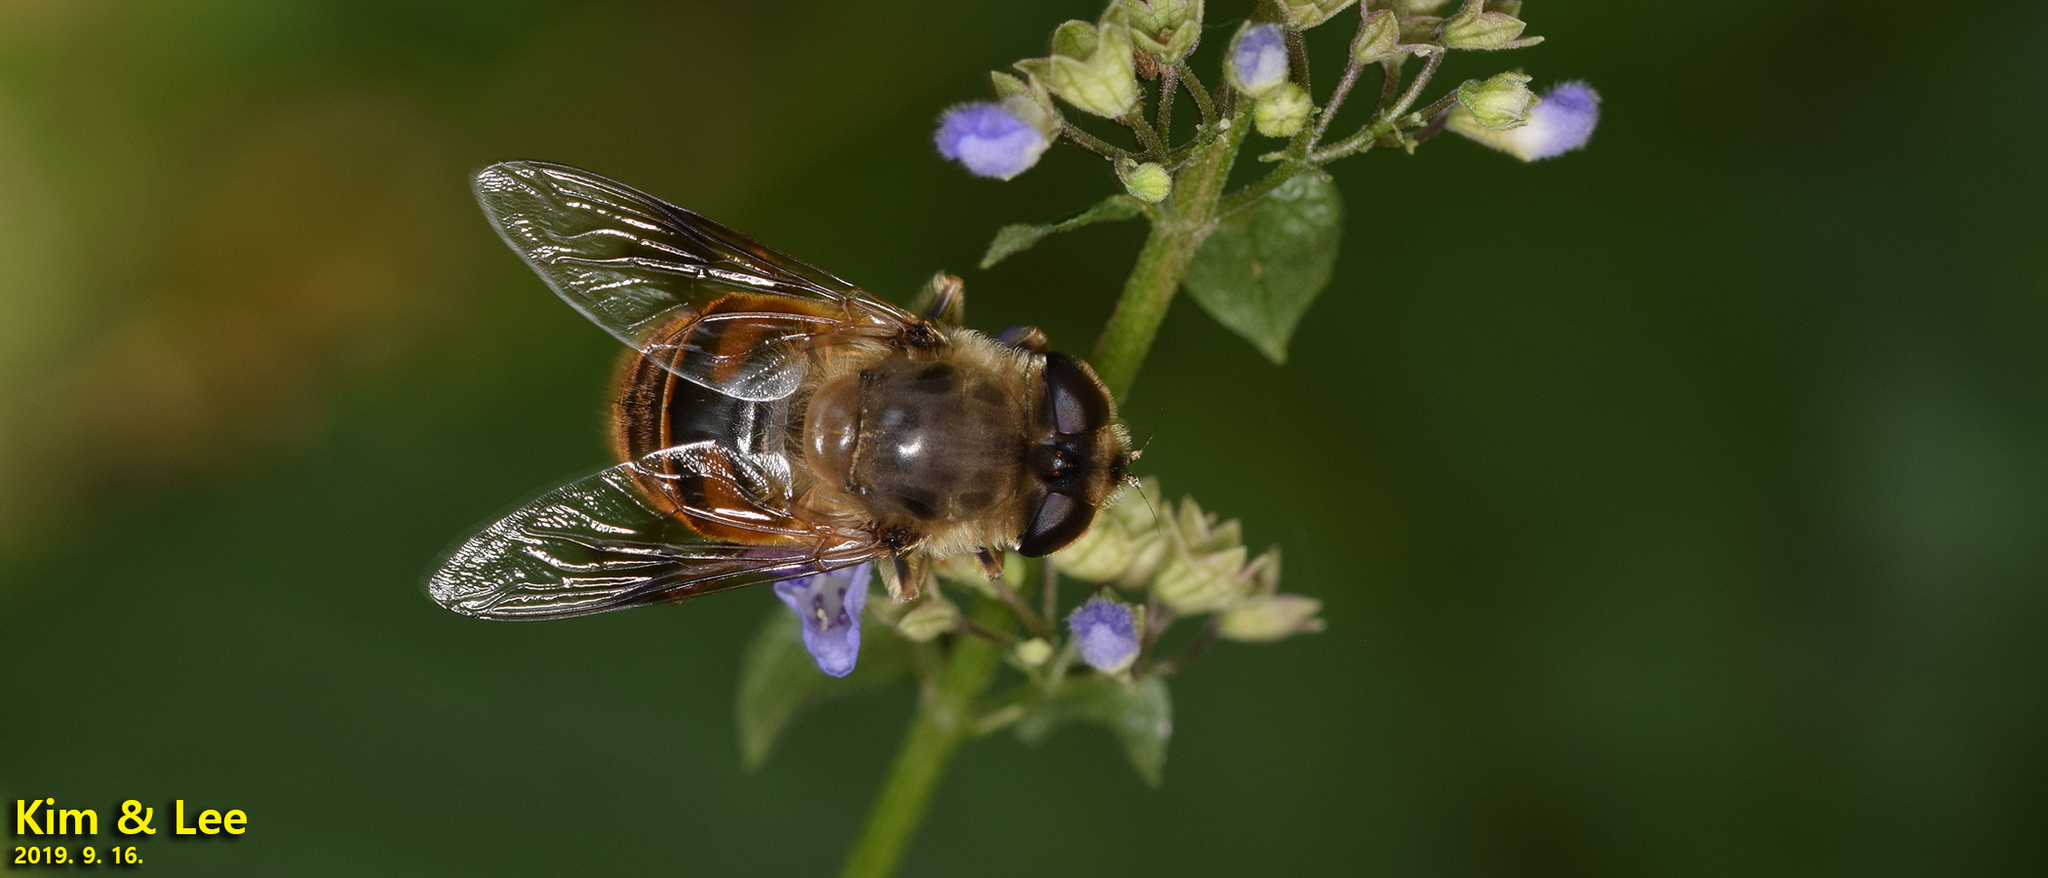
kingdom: Animalia
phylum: Arthropoda
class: Insecta
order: Diptera
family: Syrphidae
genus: Eristalis
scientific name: Eristalis tenax
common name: Drone fly
